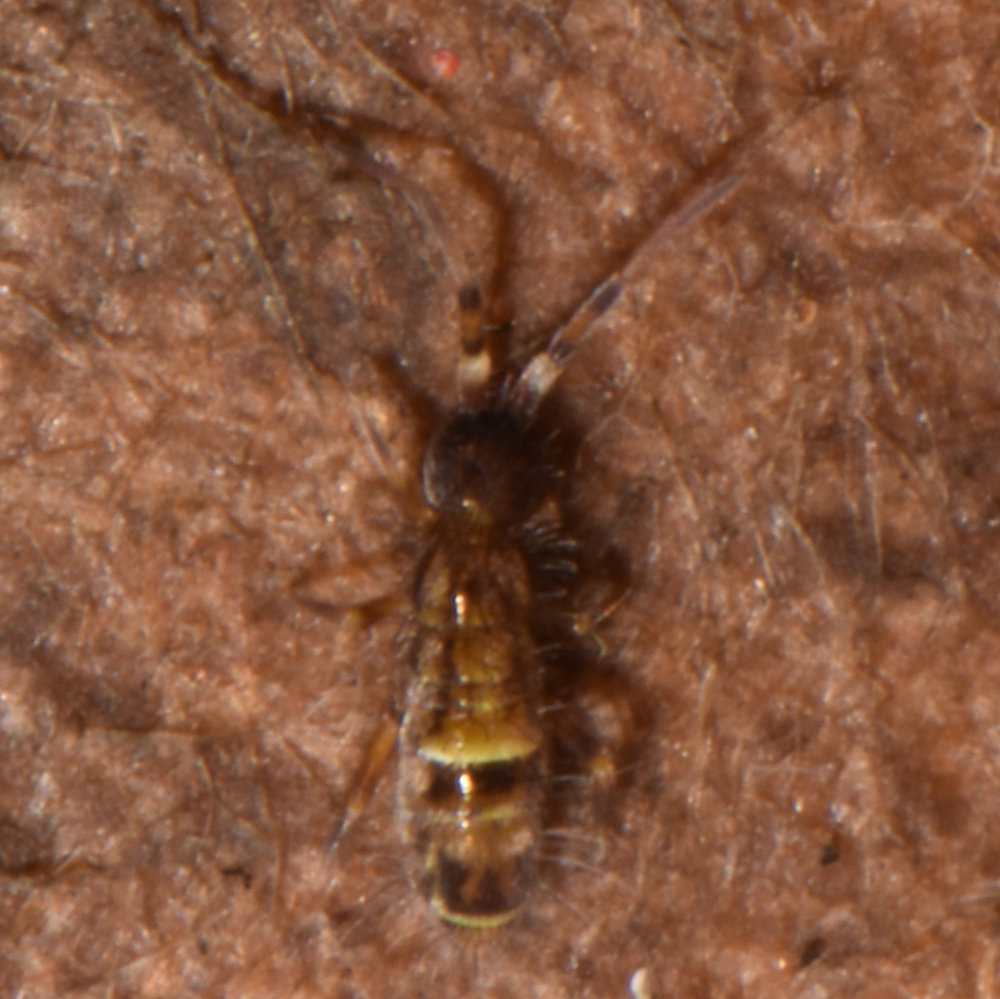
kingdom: Animalia
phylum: Arthropoda
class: Collembola
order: Entomobryomorpha
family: Orchesellidae
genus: Orchesella
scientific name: Orchesella cincta
